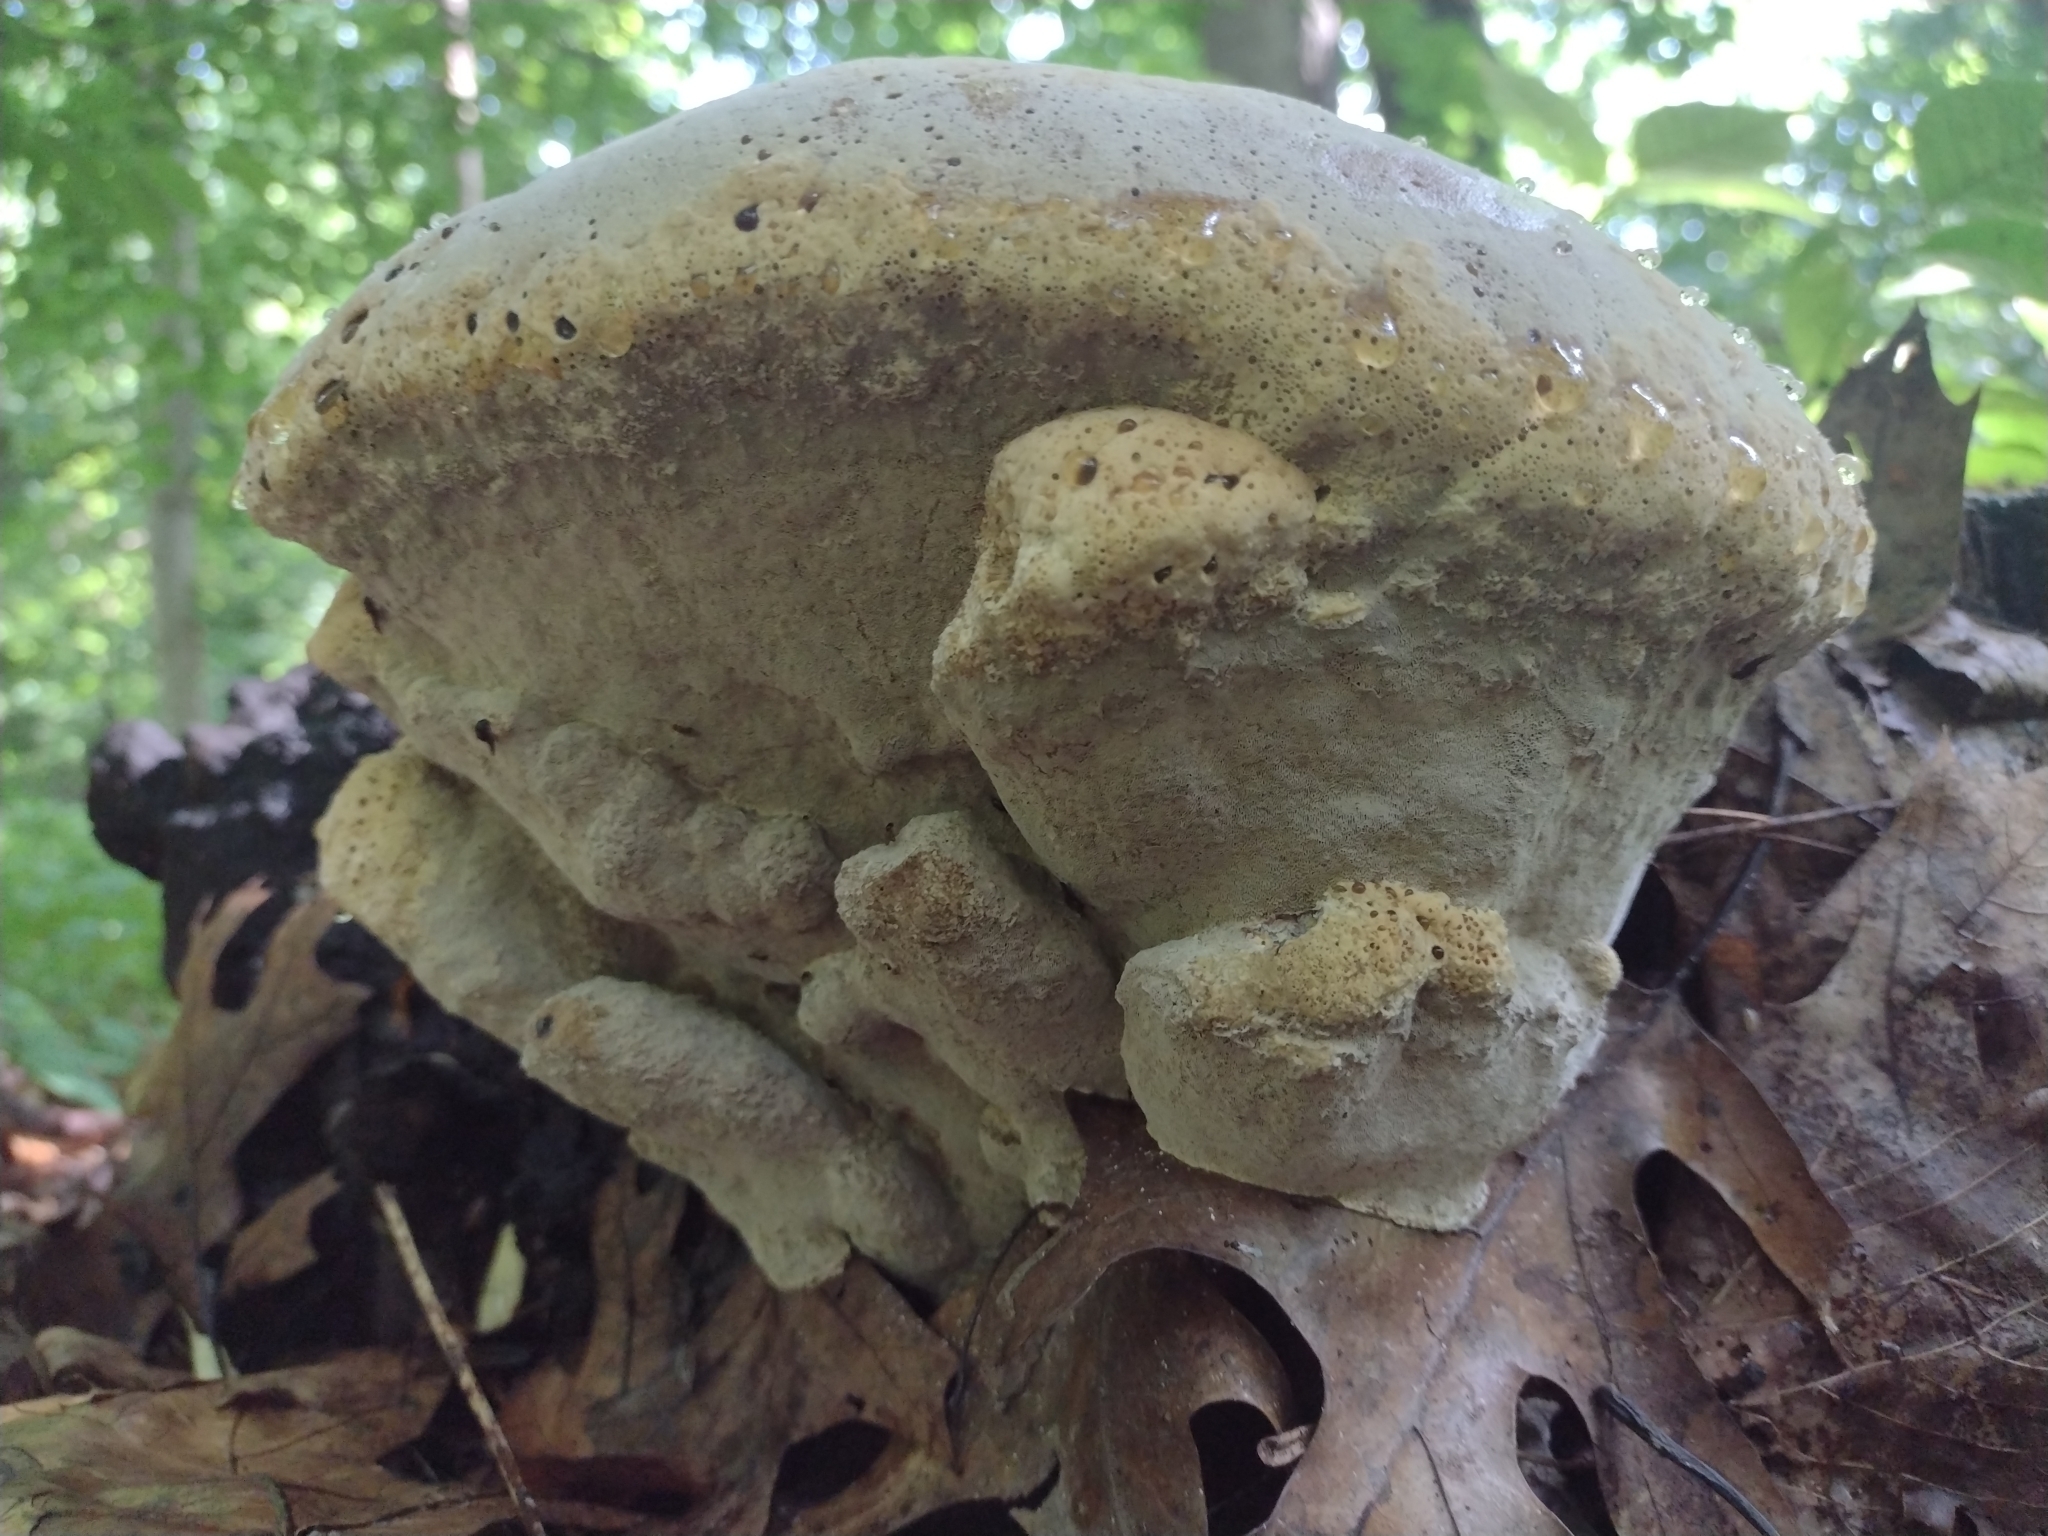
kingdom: Fungi
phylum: Basidiomycota
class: Agaricomycetes
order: Hymenochaetales
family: Hymenochaetaceae
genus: Pseudoinonotus
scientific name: Pseudoinonotus dryadeus
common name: Oak bracket
